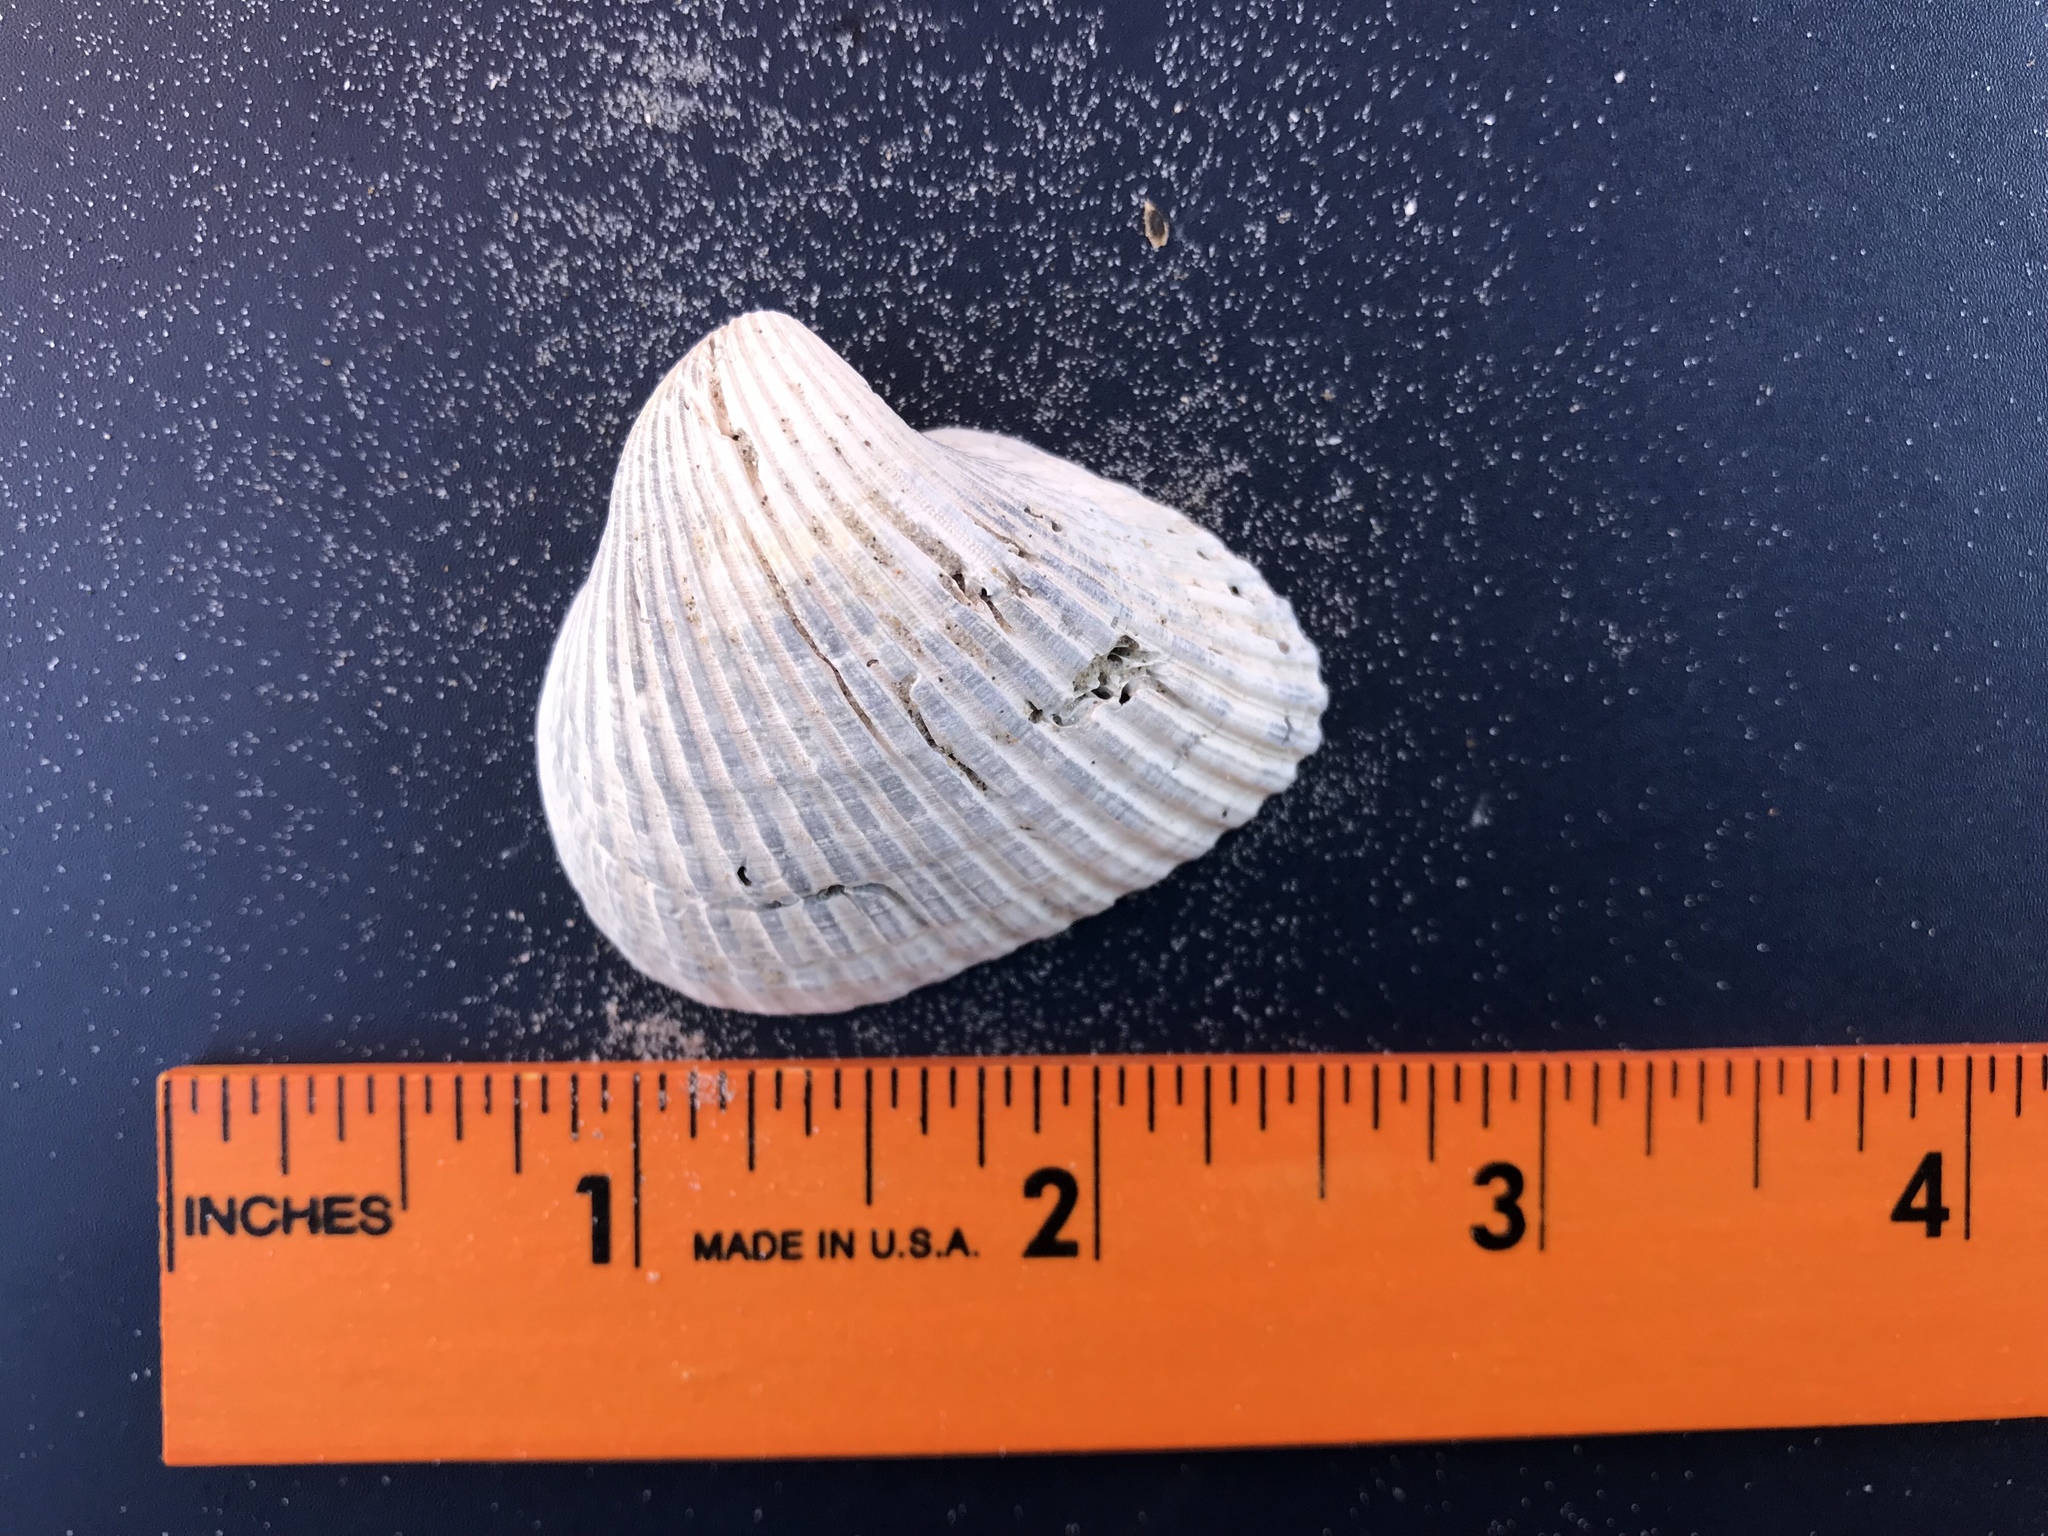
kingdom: Animalia
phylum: Mollusca
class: Bivalvia
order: Arcida
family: Noetiidae
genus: Noetia
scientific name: Noetia ponderosa
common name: Ponderous ark
